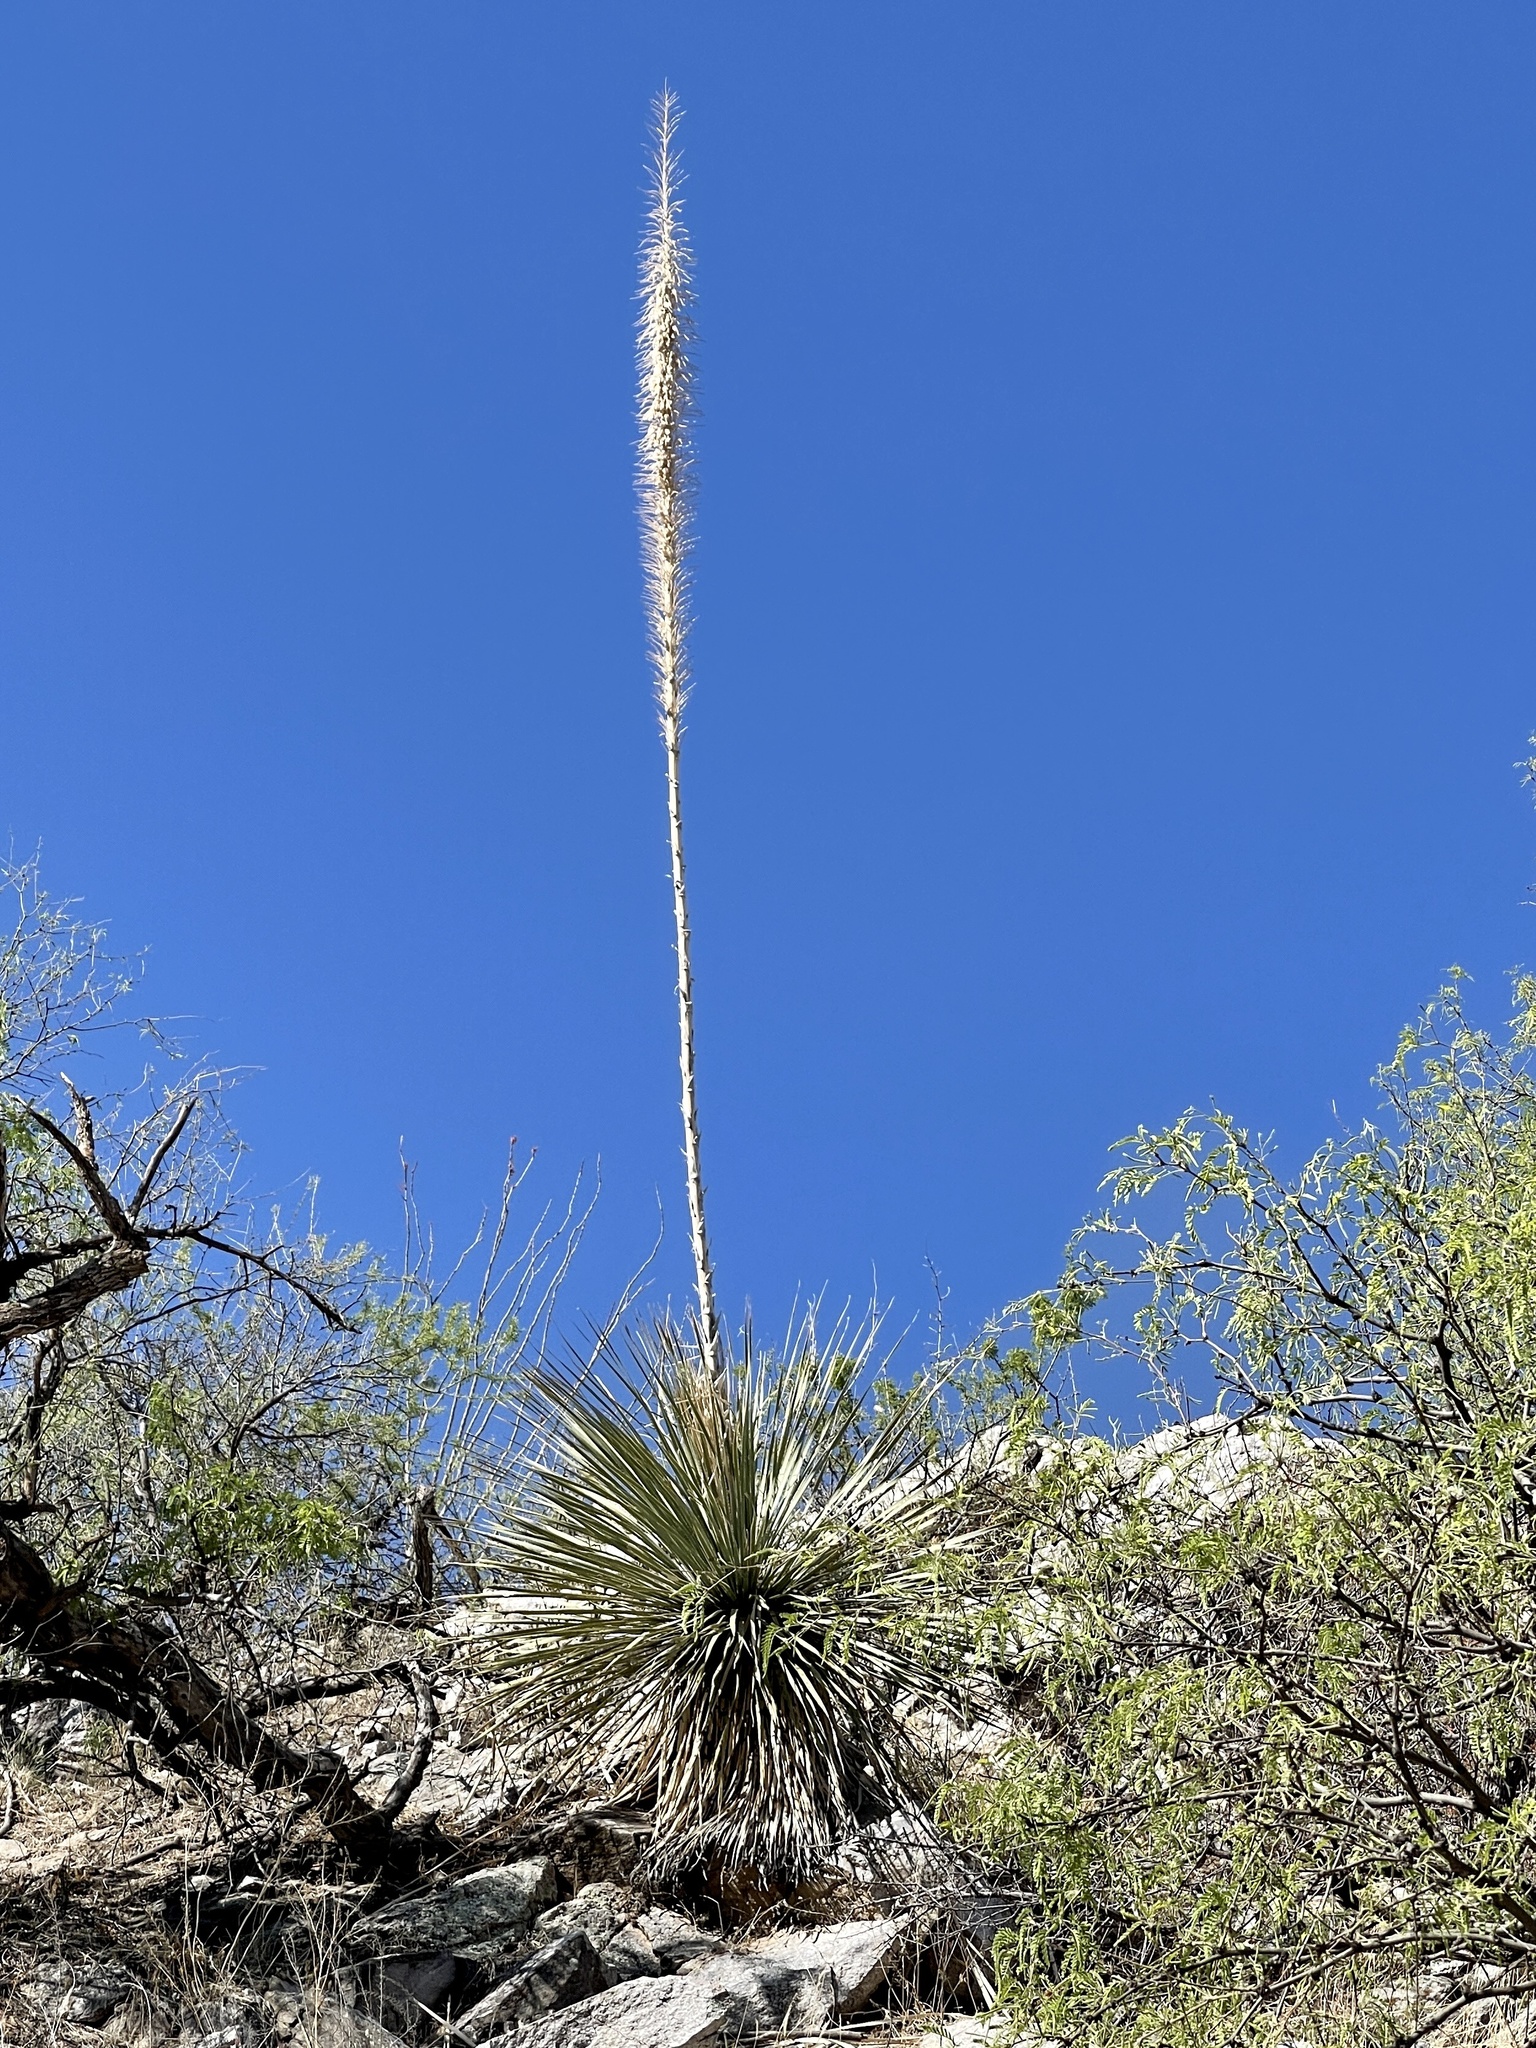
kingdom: Plantae
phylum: Tracheophyta
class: Liliopsida
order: Asparagales
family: Asparagaceae
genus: Dasylirion
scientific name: Dasylirion wheeleri
